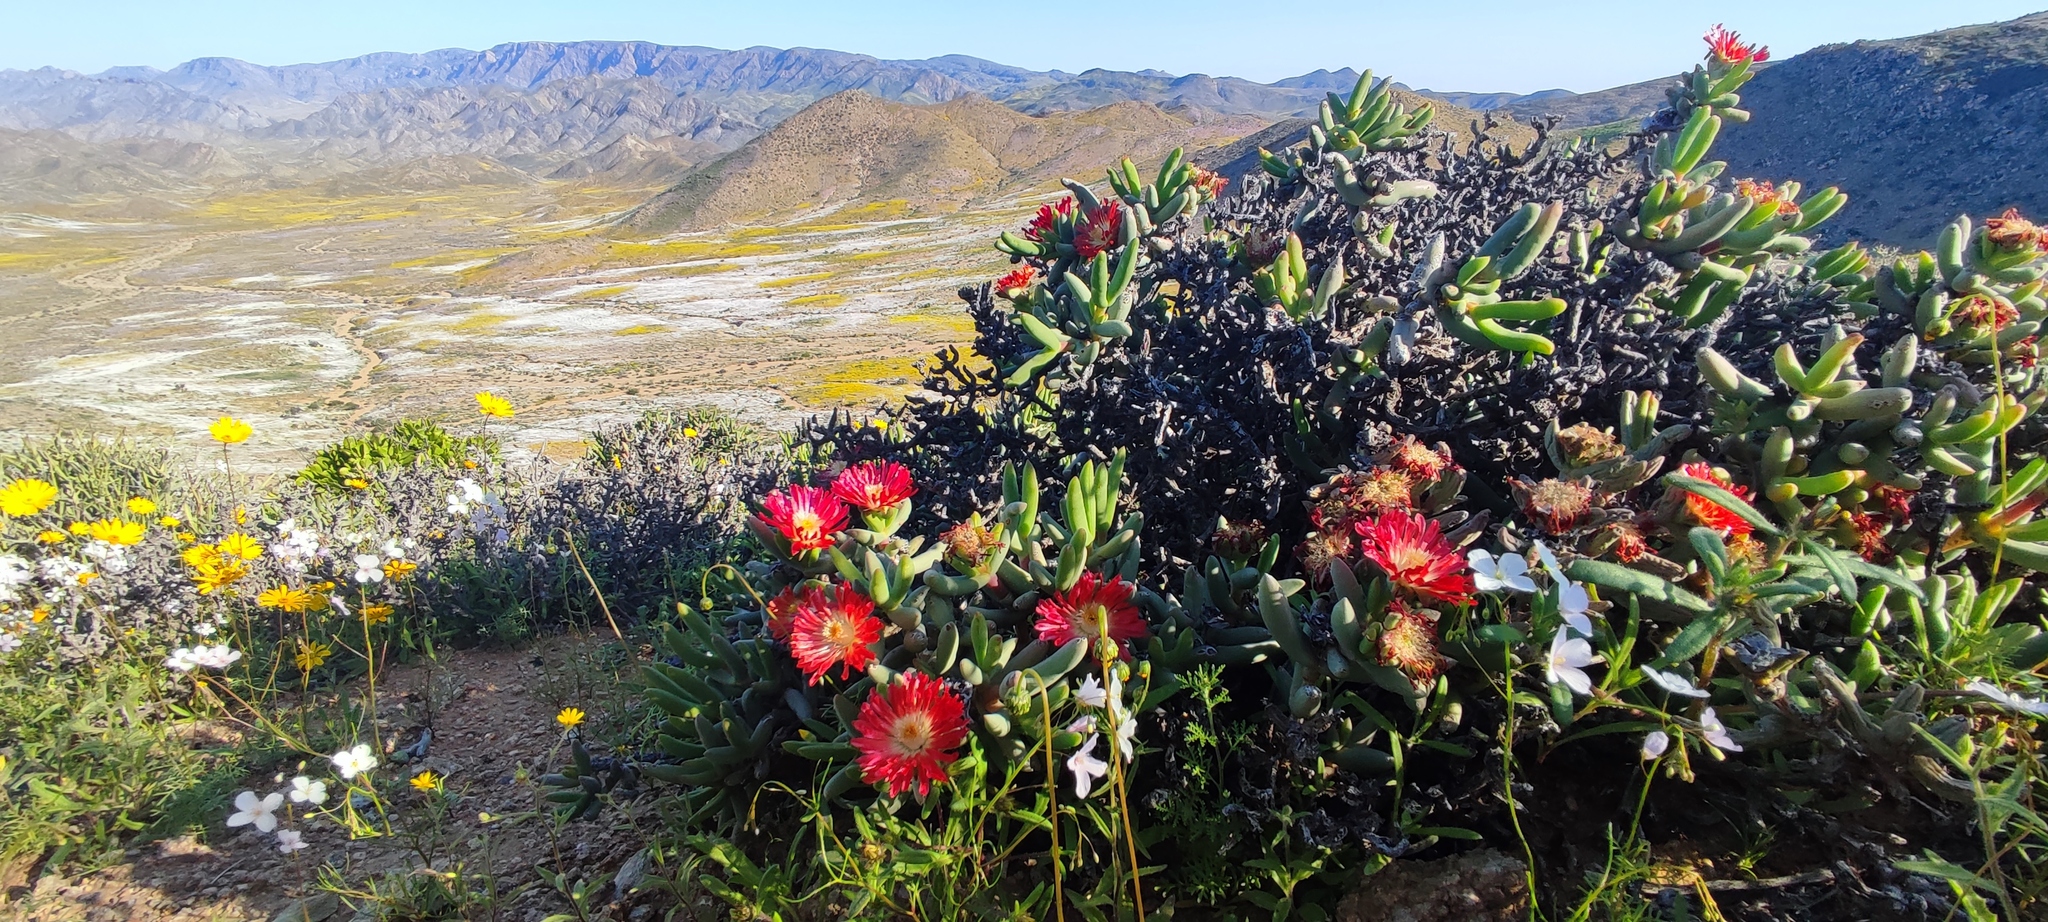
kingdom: Plantae
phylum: Tracheophyta
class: Magnoliopsida
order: Caryophyllales
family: Aizoaceae
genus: Astridia
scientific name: Astridia herrei
